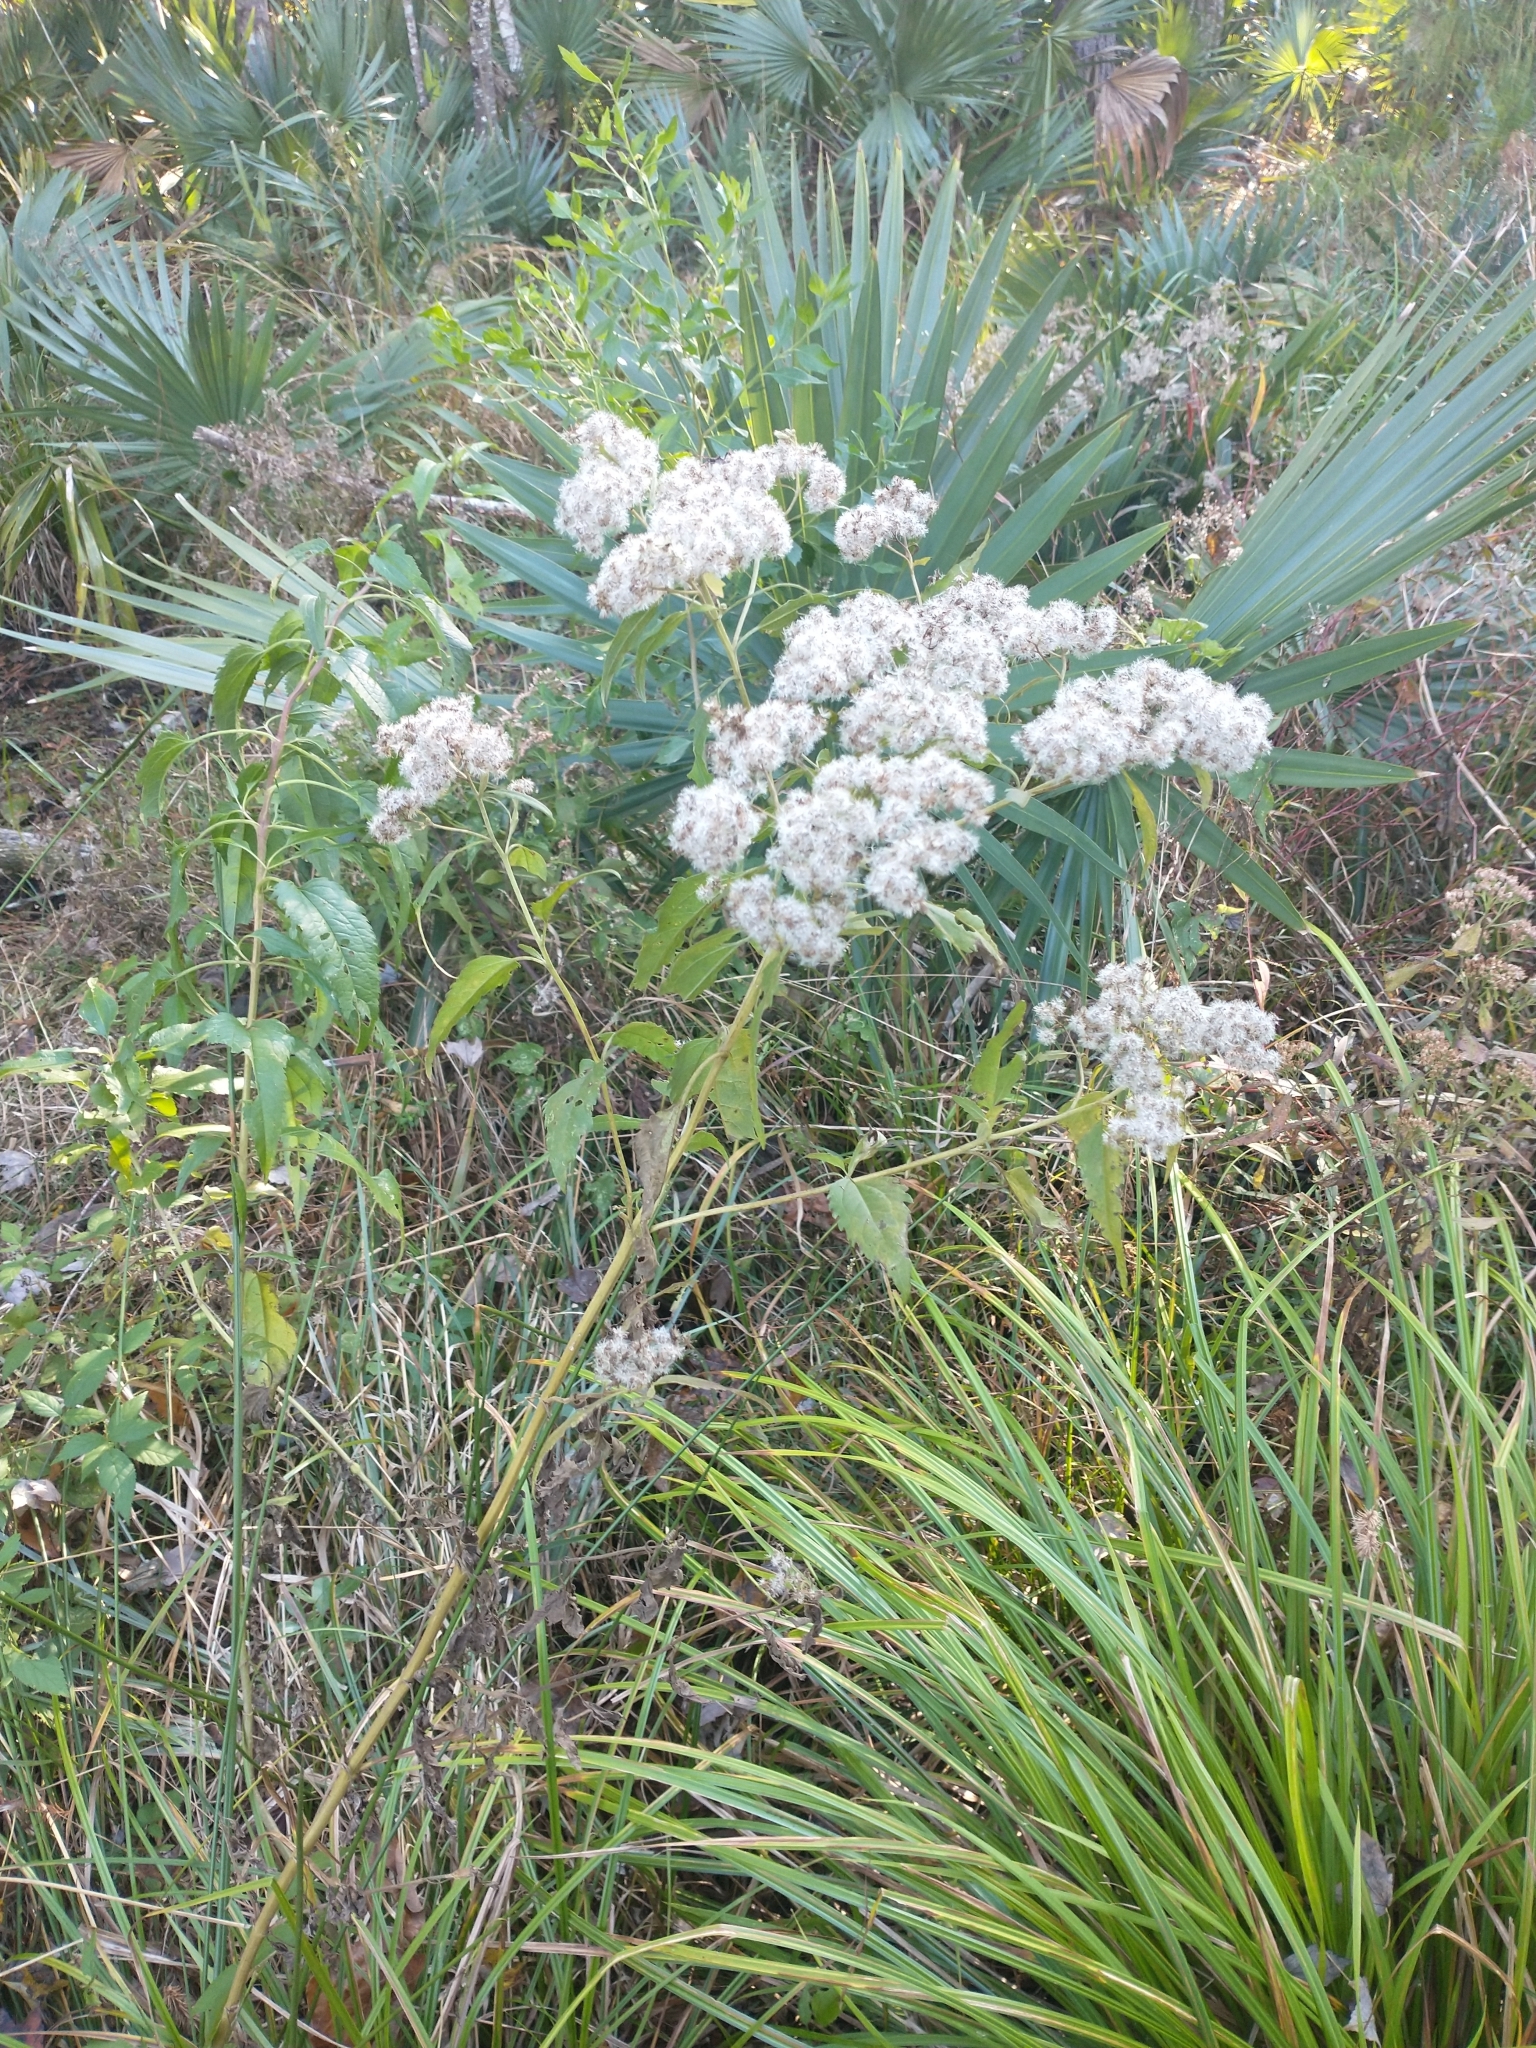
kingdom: Plantae
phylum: Tracheophyta
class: Magnoliopsida
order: Asterales
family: Asteraceae
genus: Eupatorium
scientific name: Eupatorium serotinum
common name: Late boneset
